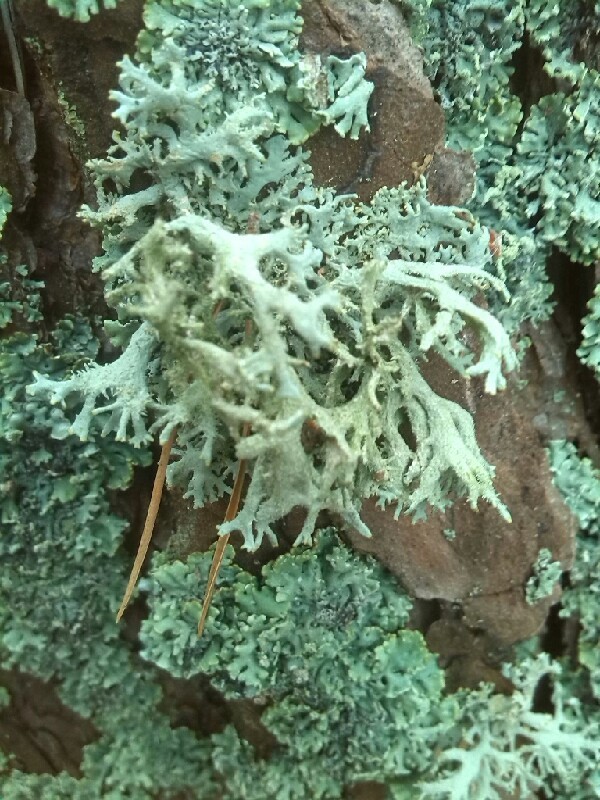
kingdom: Fungi
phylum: Ascomycota
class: Lecanoromycetes
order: Lecanorales
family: Parmeliaceae
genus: Hypogymnia
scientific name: Hypogymnia physodes
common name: Dark crottle
